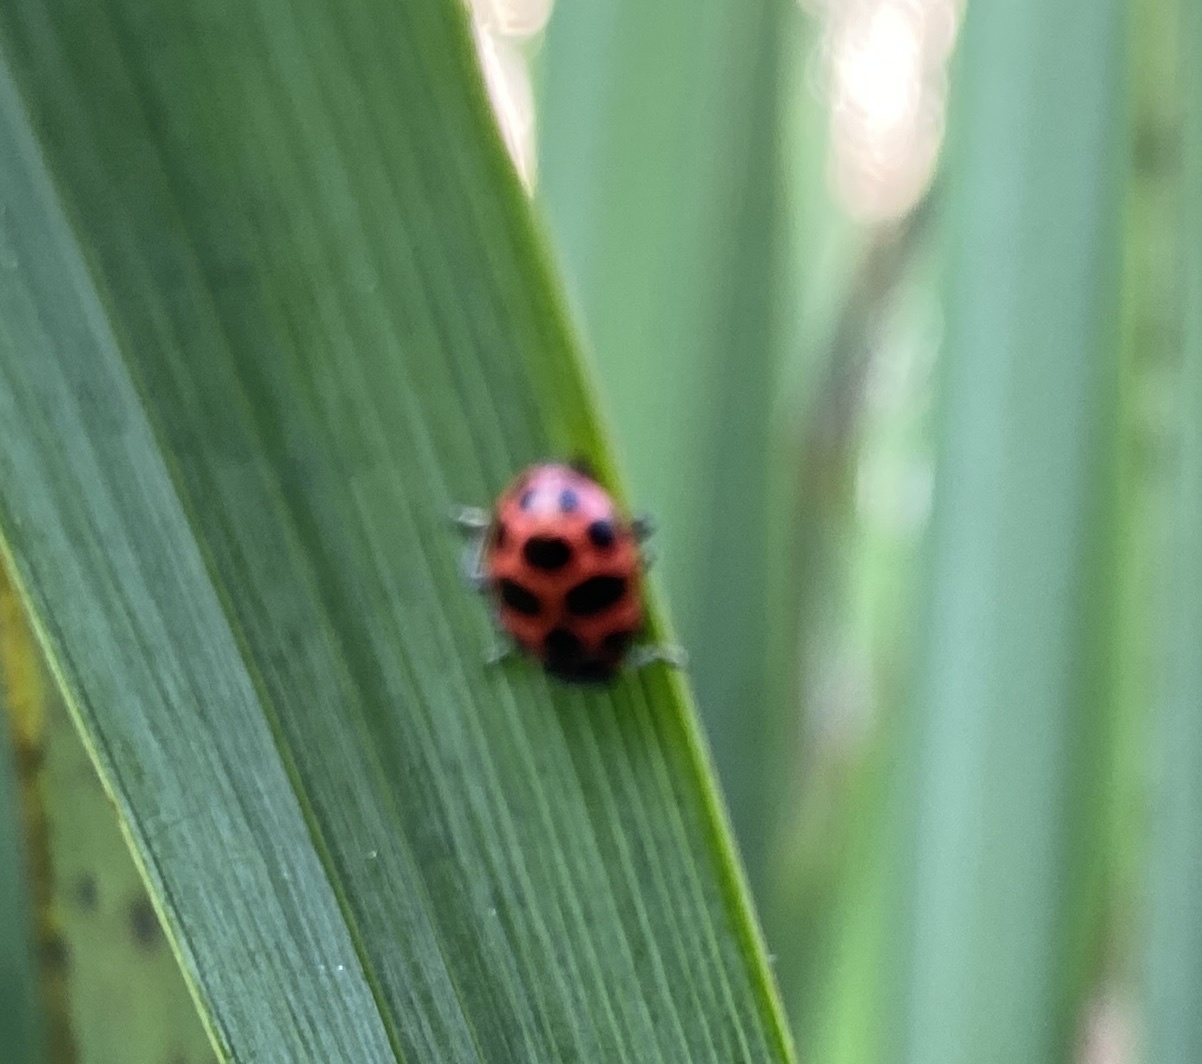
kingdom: Animalia
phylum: Arthropoda
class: Insecta
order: Coleoptera
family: Coccinellidae
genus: Coleomegilla
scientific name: Coleomegilla maculata
